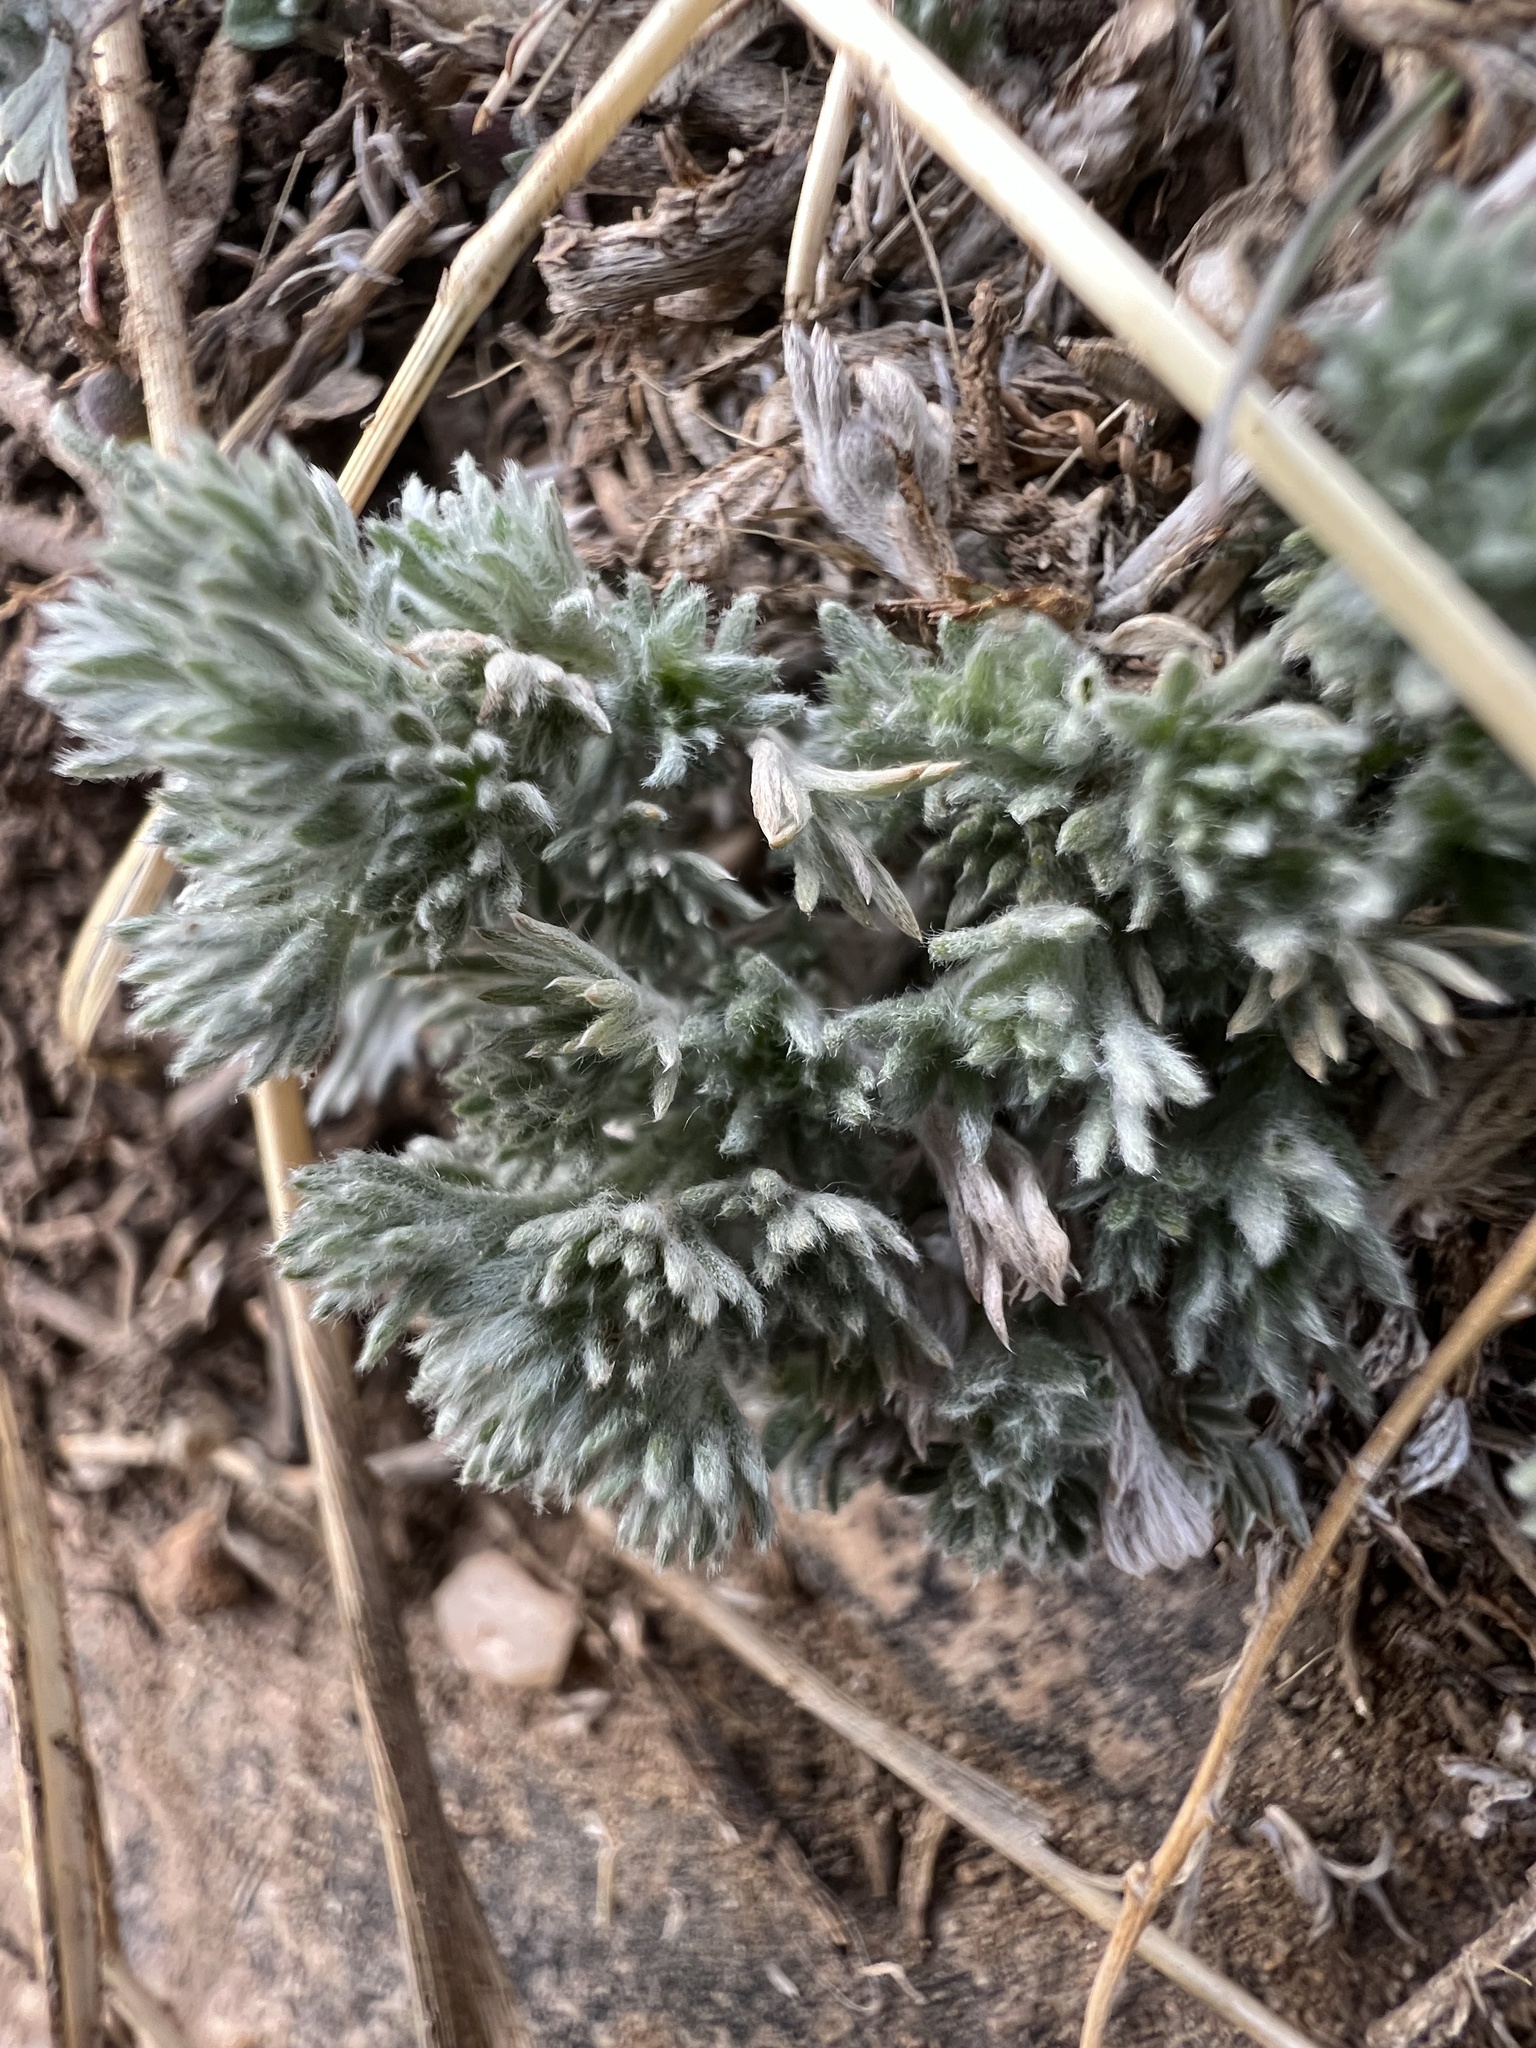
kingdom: Plantae
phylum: Tracheophyta
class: Magnoliopsida
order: Asterales
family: Asteraceae
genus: Artemisia
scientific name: Artemisia frigida
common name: Prairie sagewort
